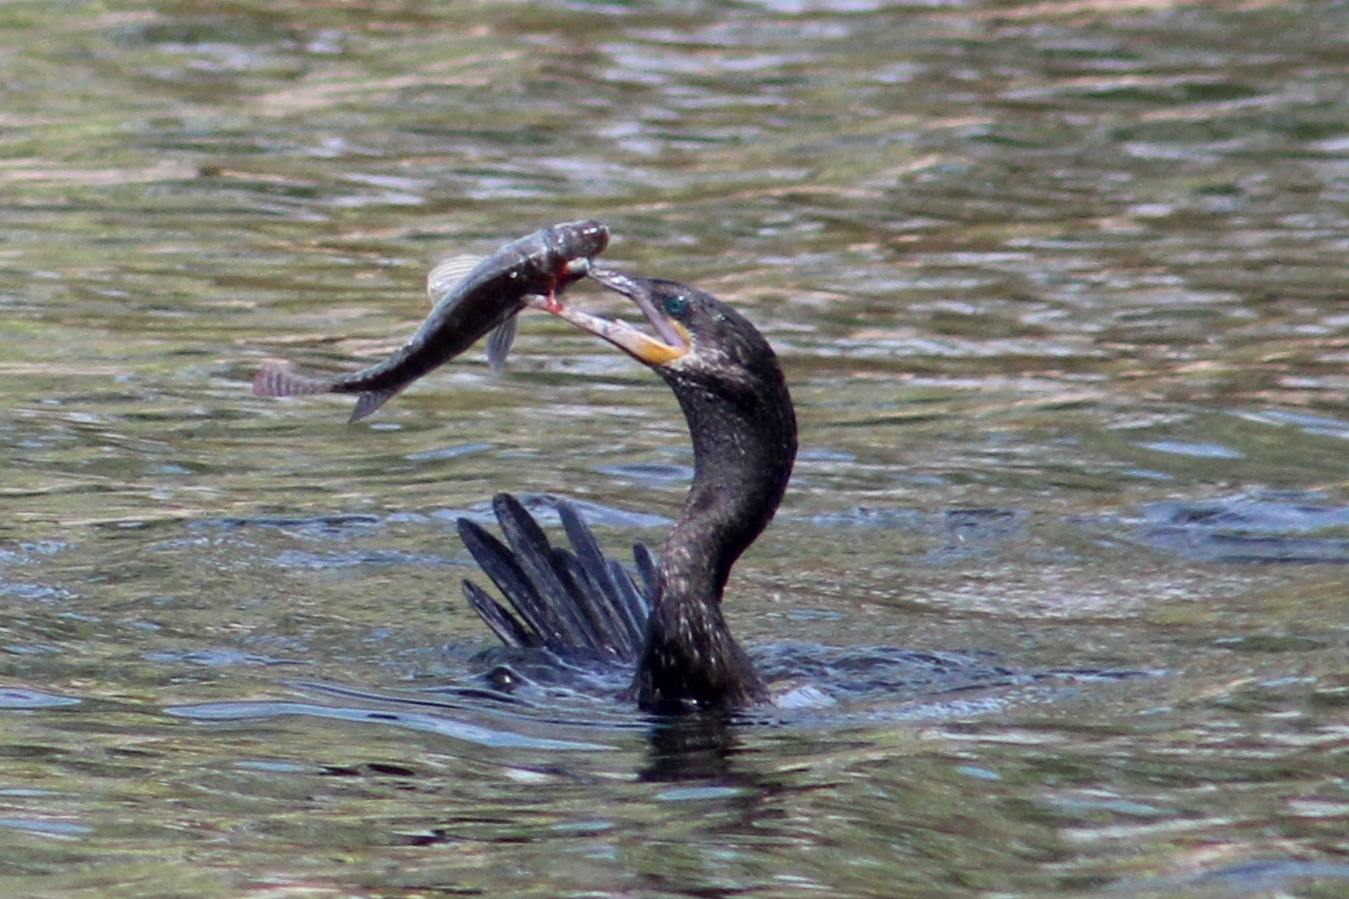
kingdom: Animalia
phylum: Chordata
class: Aves
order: Suliformes
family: Phalacrocoracidae
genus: Phalacrocorax
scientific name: Phalacrocorax brasilianus
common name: Neotropic cormorant
